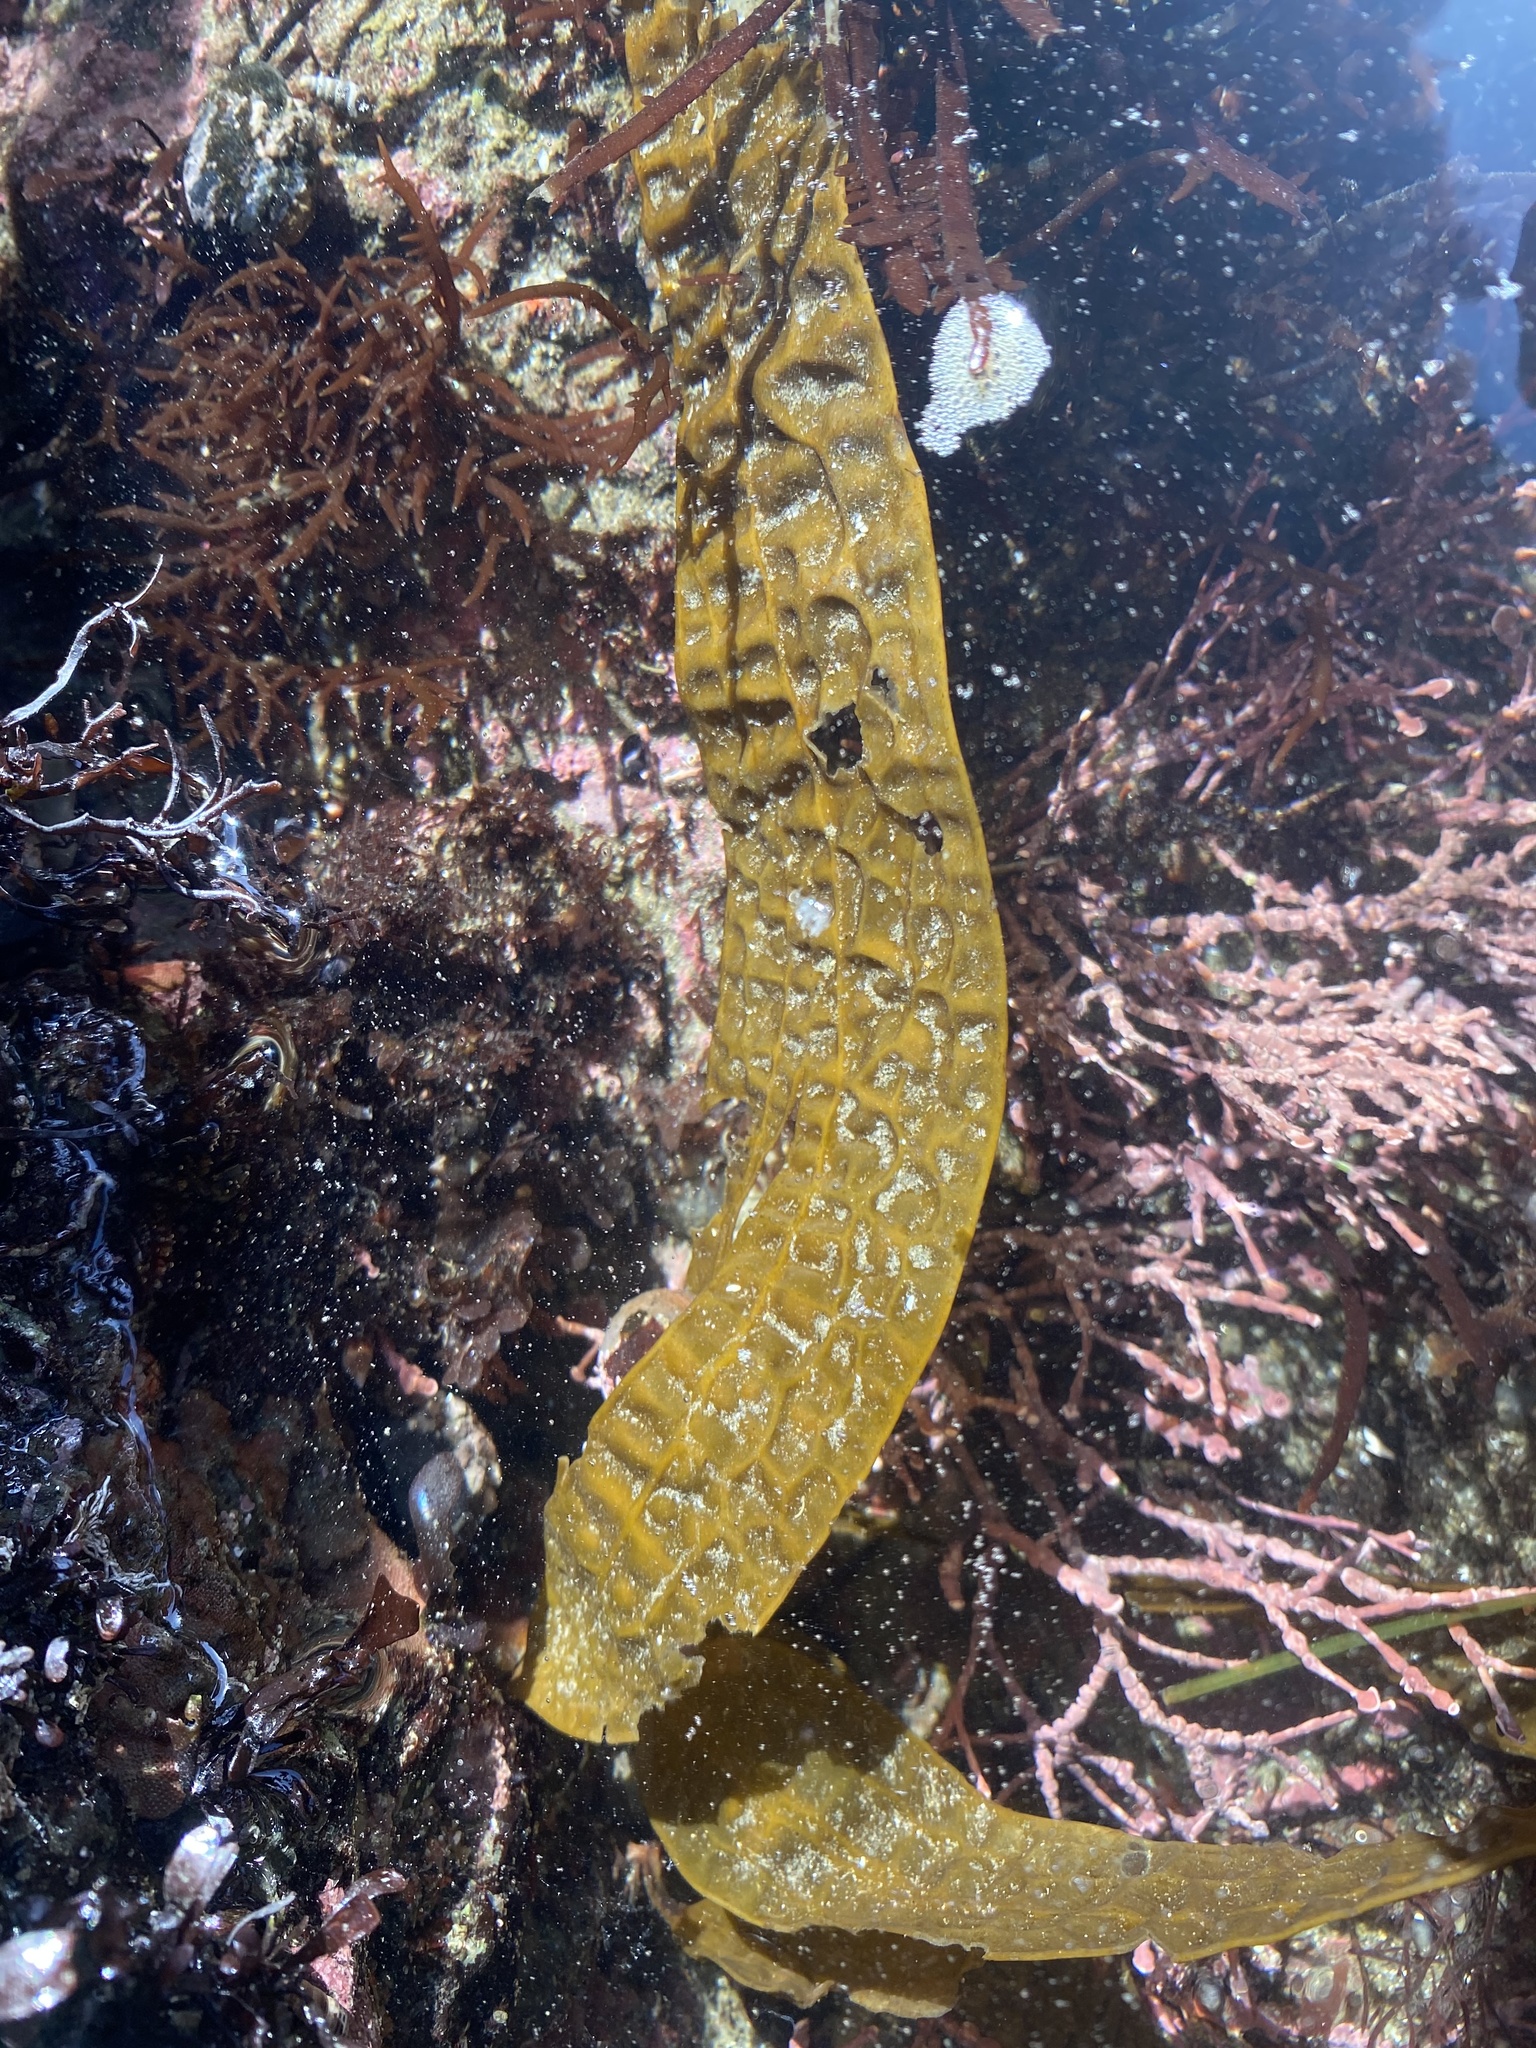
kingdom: Chromista
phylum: Ochrophyta
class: Phaeophyceae
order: Laminariales
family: Costariaceae
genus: Dictyoneurum
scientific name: Dictyoneurum californicum
